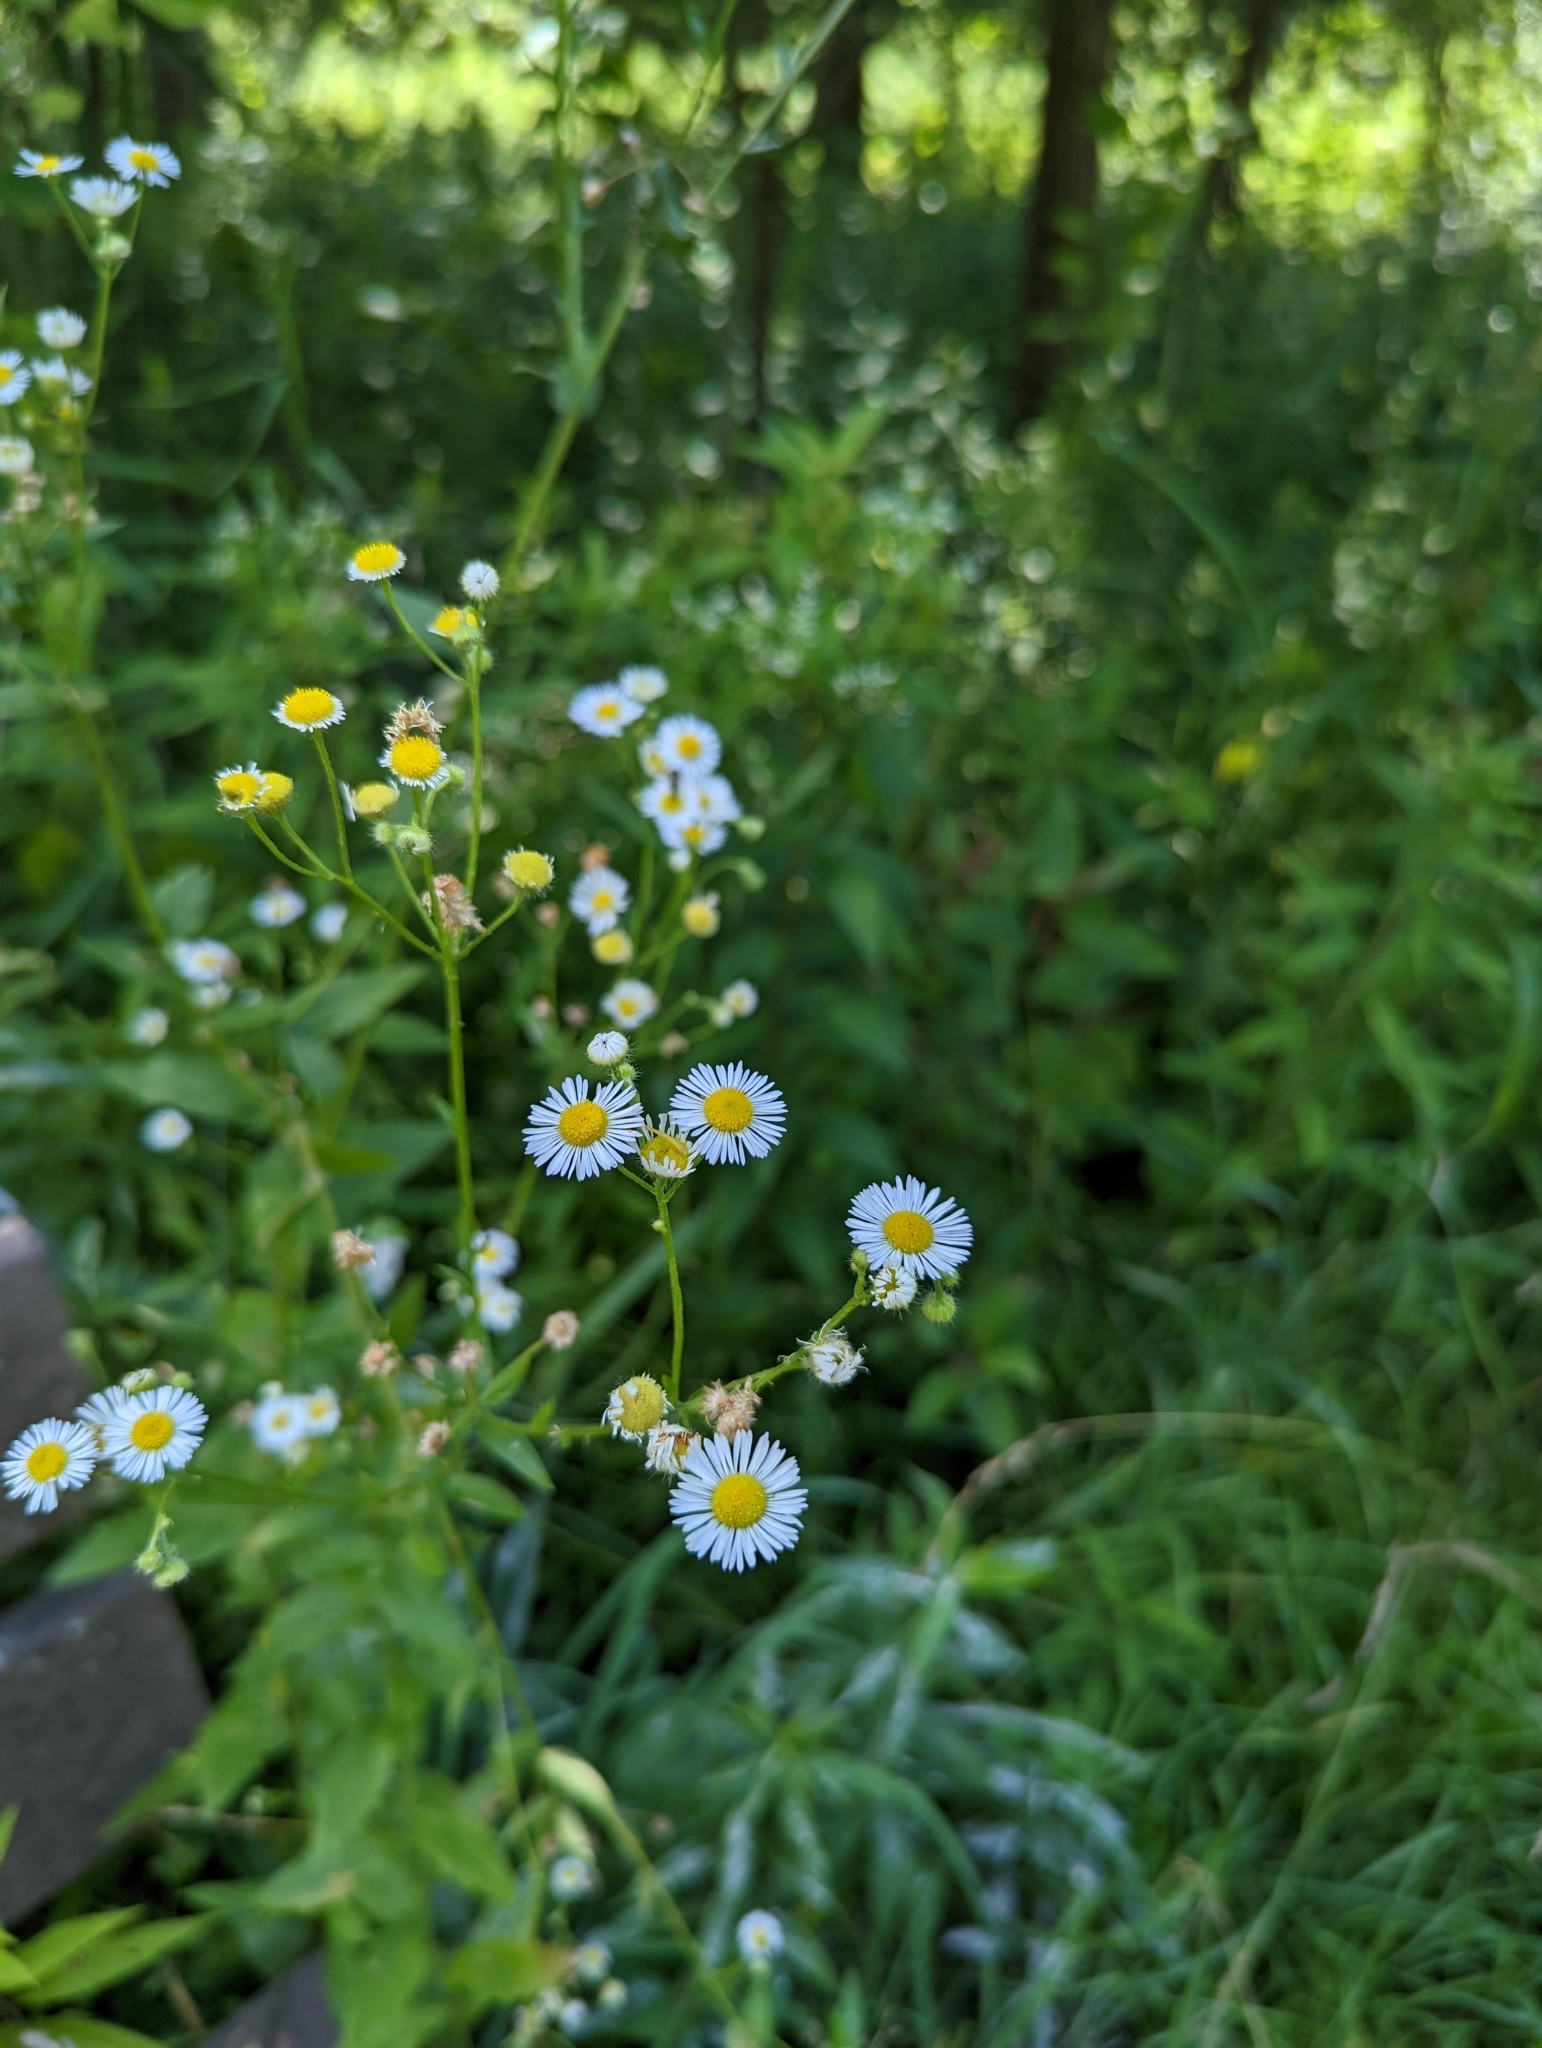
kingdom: Plantae
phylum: Tracheophyta
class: Magnoliopsida
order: Asterales
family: Asteraceae
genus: Erigeron
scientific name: Erigeron annuus
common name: Tall fleabane
